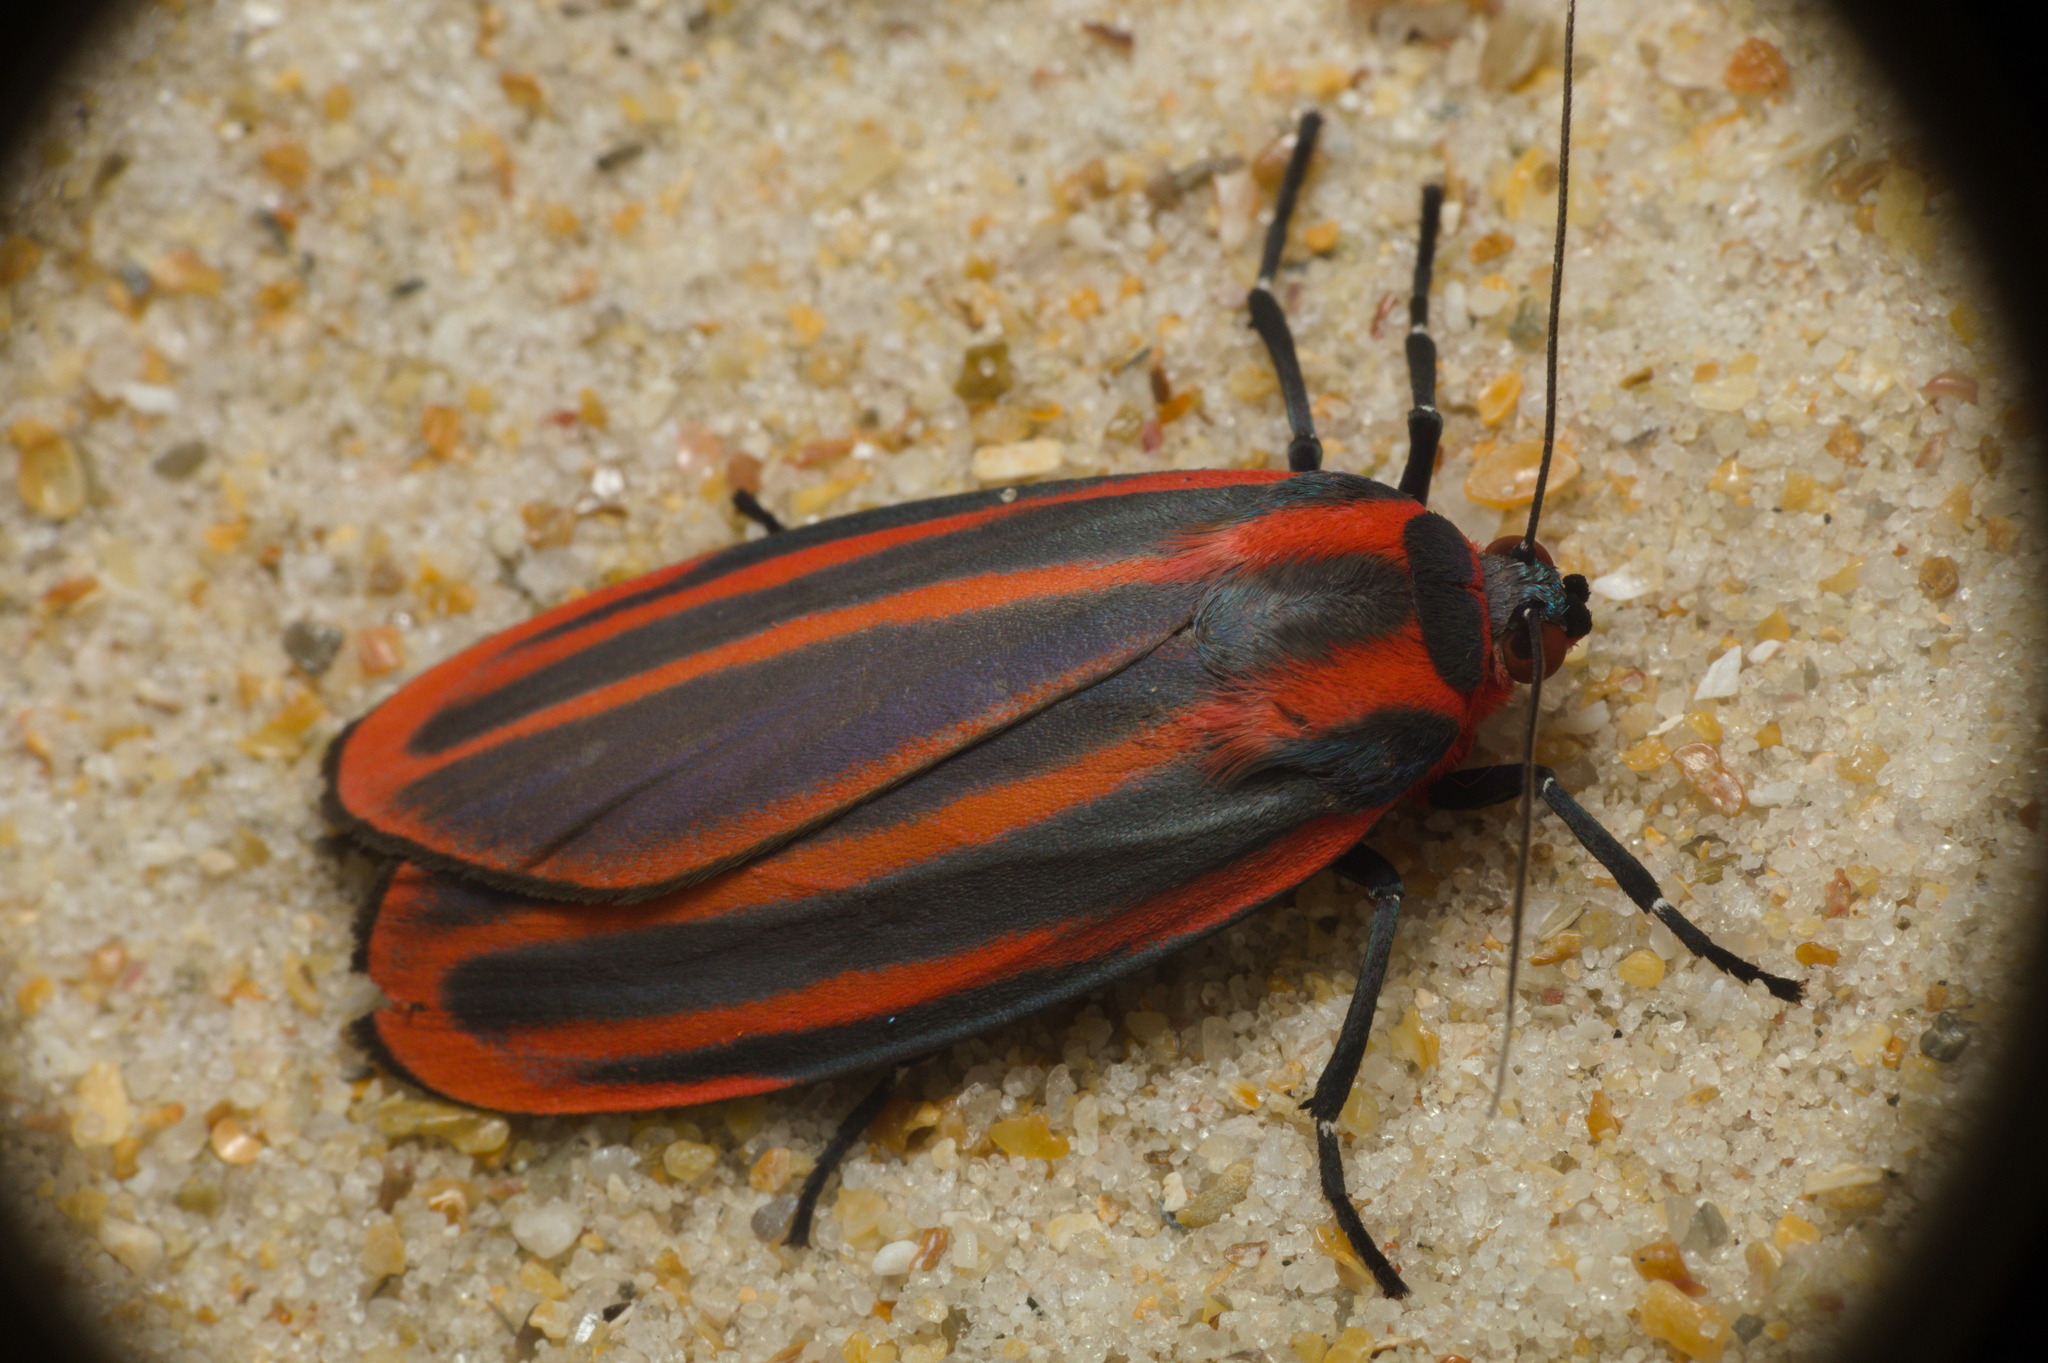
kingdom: Animalia
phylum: Arthropoda
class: Insecta
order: Lepidoptera
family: Erebidae
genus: Cissura
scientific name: Cissura decora
